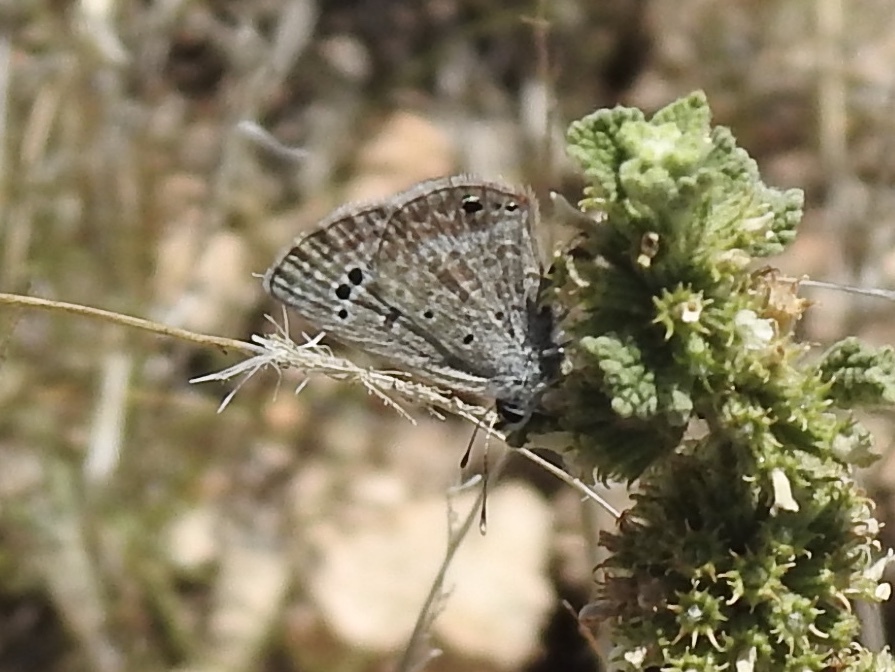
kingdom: Animalia
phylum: Arthropoda
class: Insecta
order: Lepidoptera
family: Lycaenidae
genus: Echinargus
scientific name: Echinargus isola
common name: Reakirt's blue
